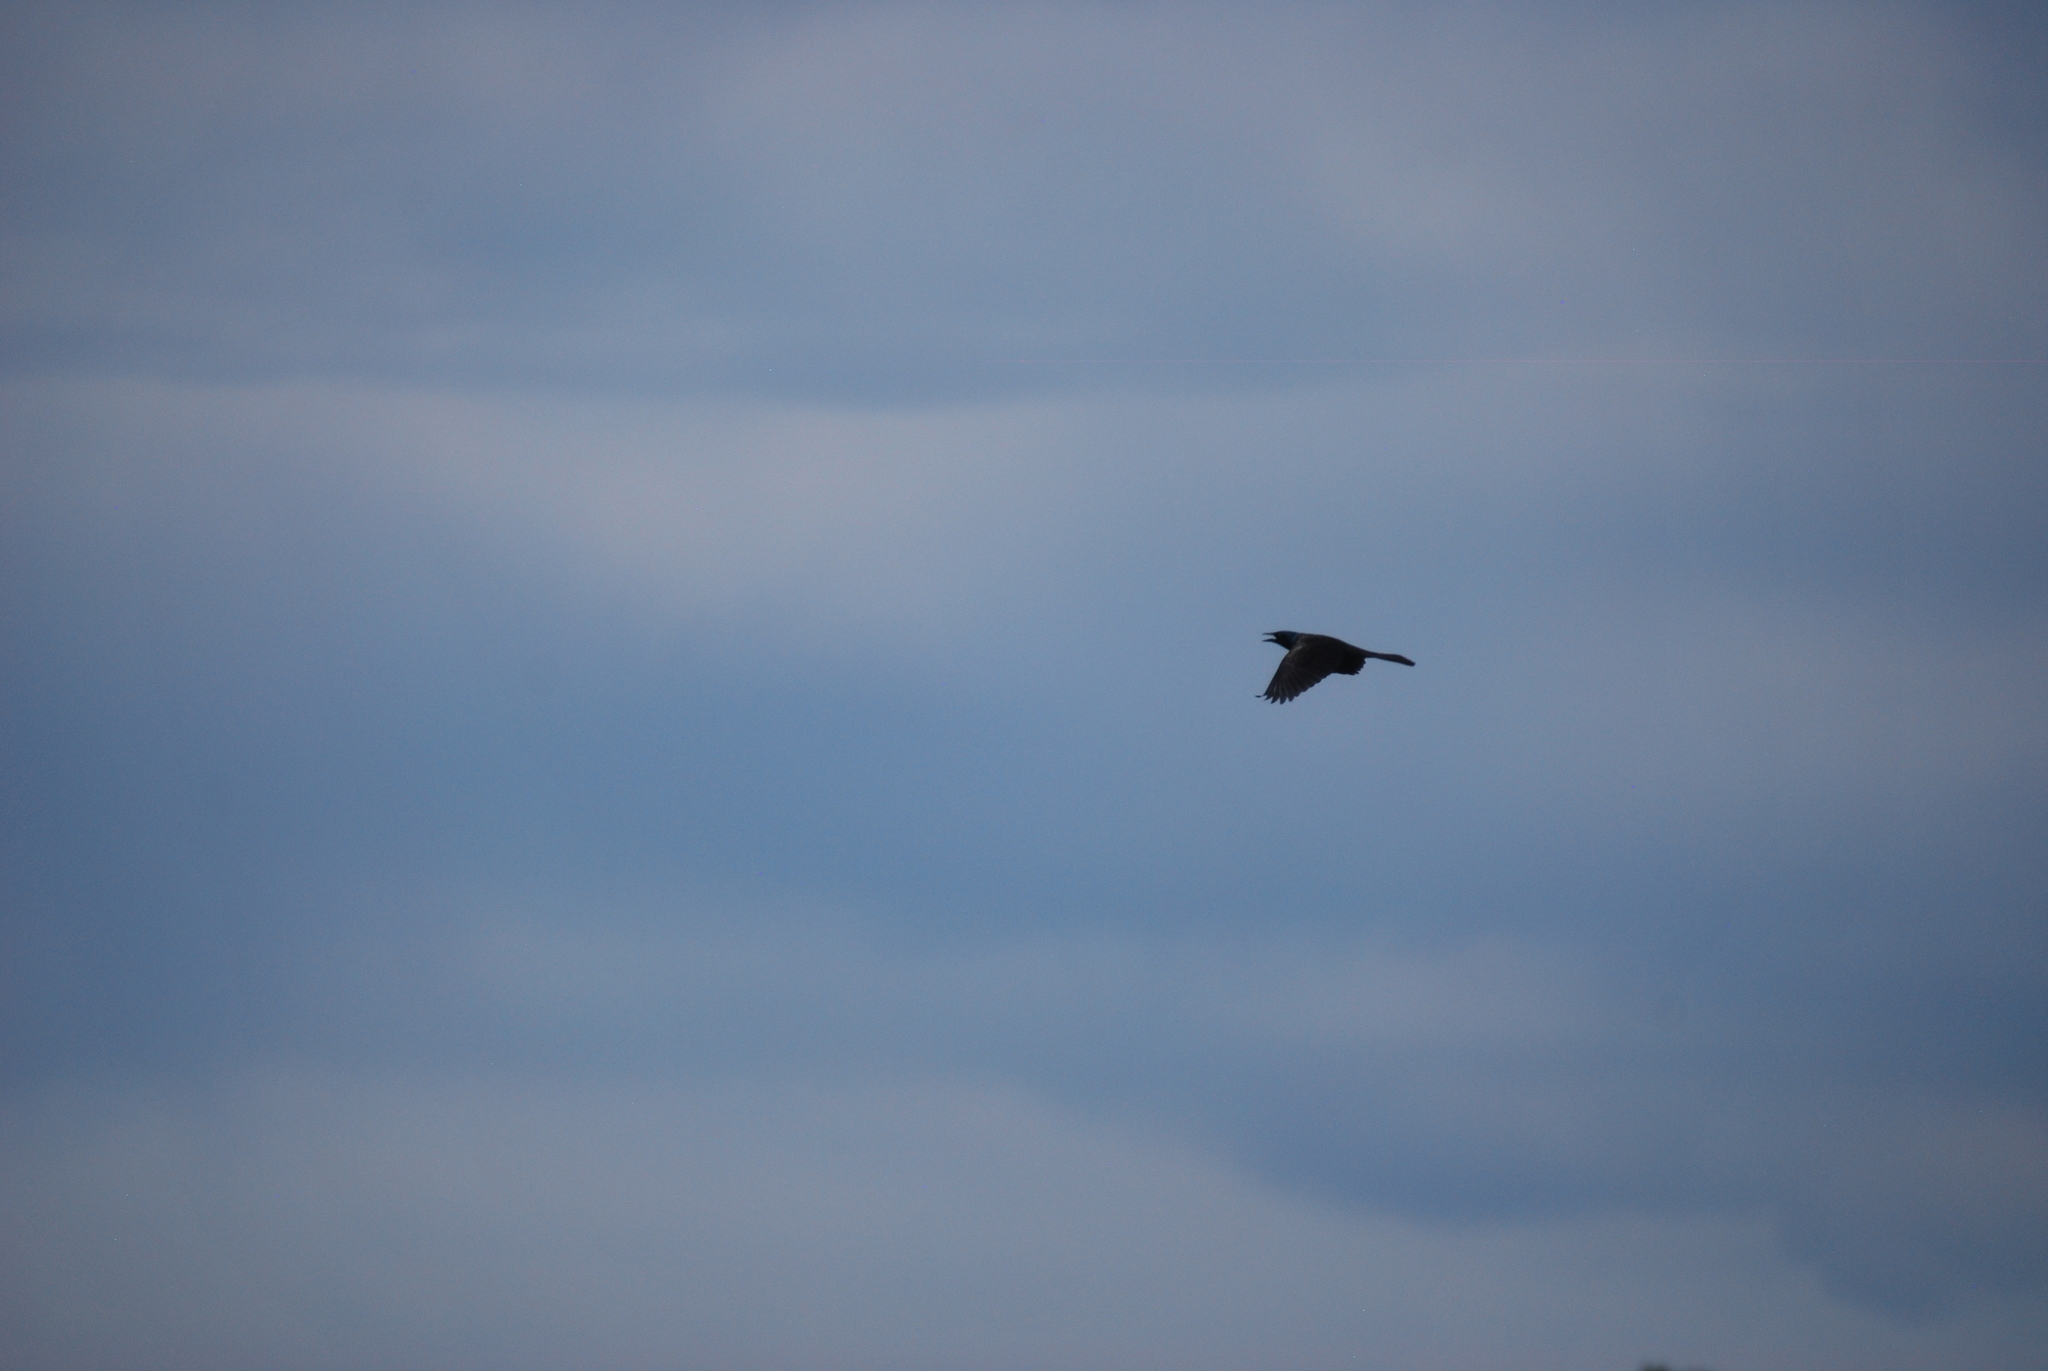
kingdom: Animalia
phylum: Chordata
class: Aves
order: Passeriformes
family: Icteridae
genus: Quiscalus
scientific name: Quiscalus quiscula
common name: Common grackle
